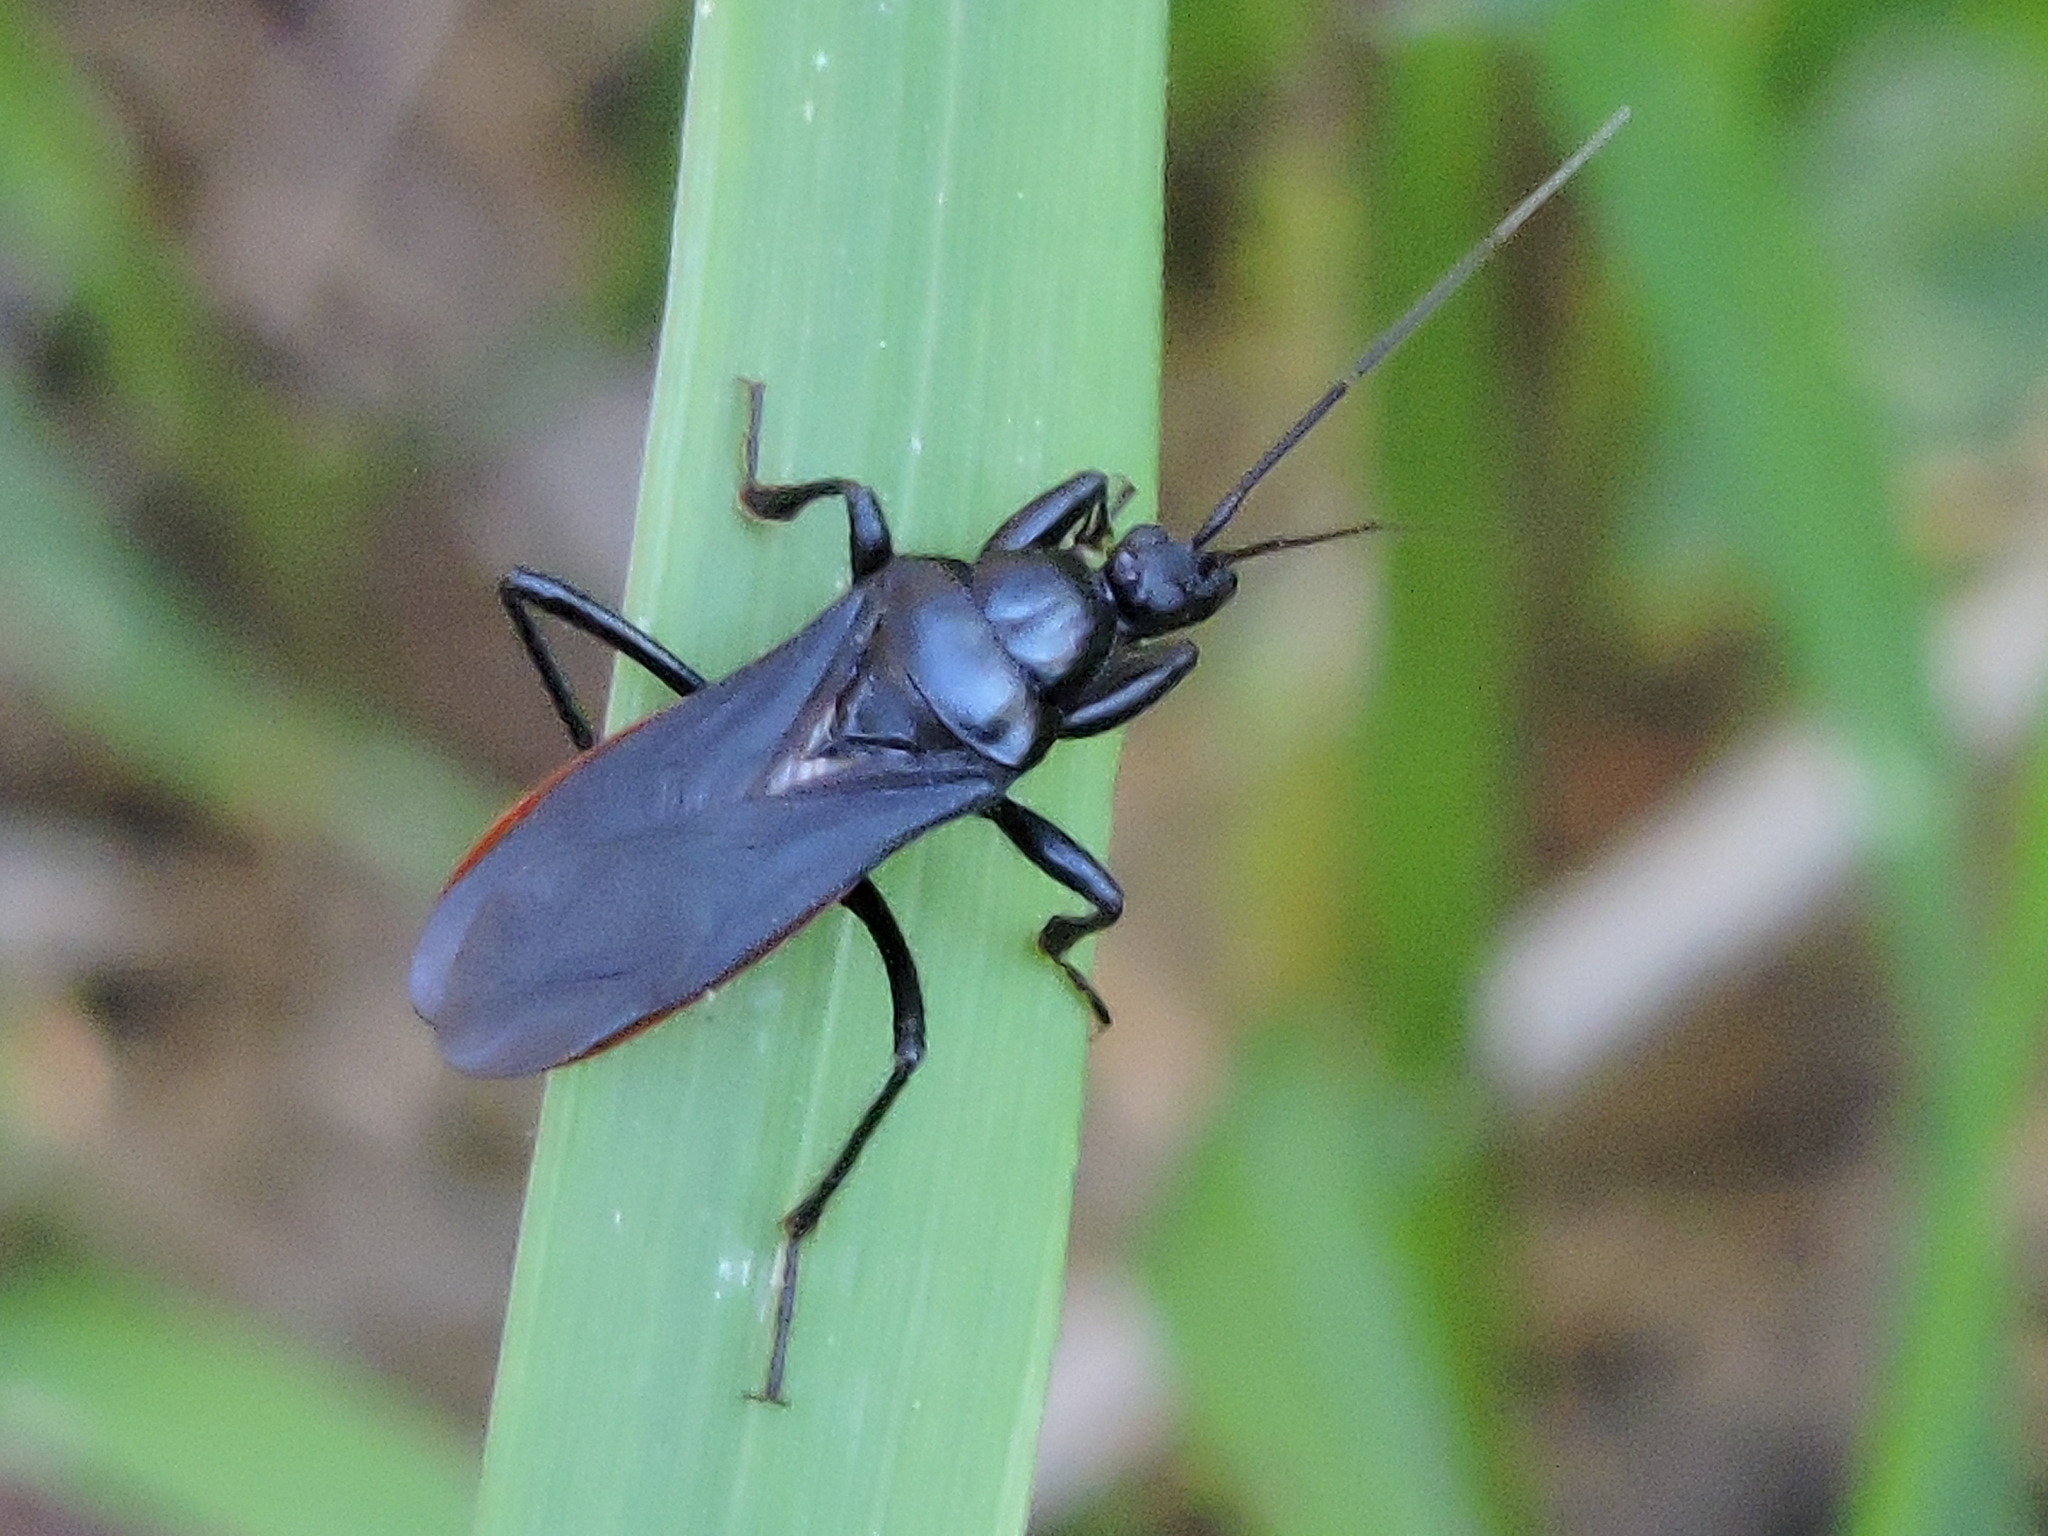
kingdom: Animalia
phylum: Arthropoda
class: Insecta
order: Hemiptera
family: Reduviidae
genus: Melanolestes
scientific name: Melanolestes picipes
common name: Assassin bug
